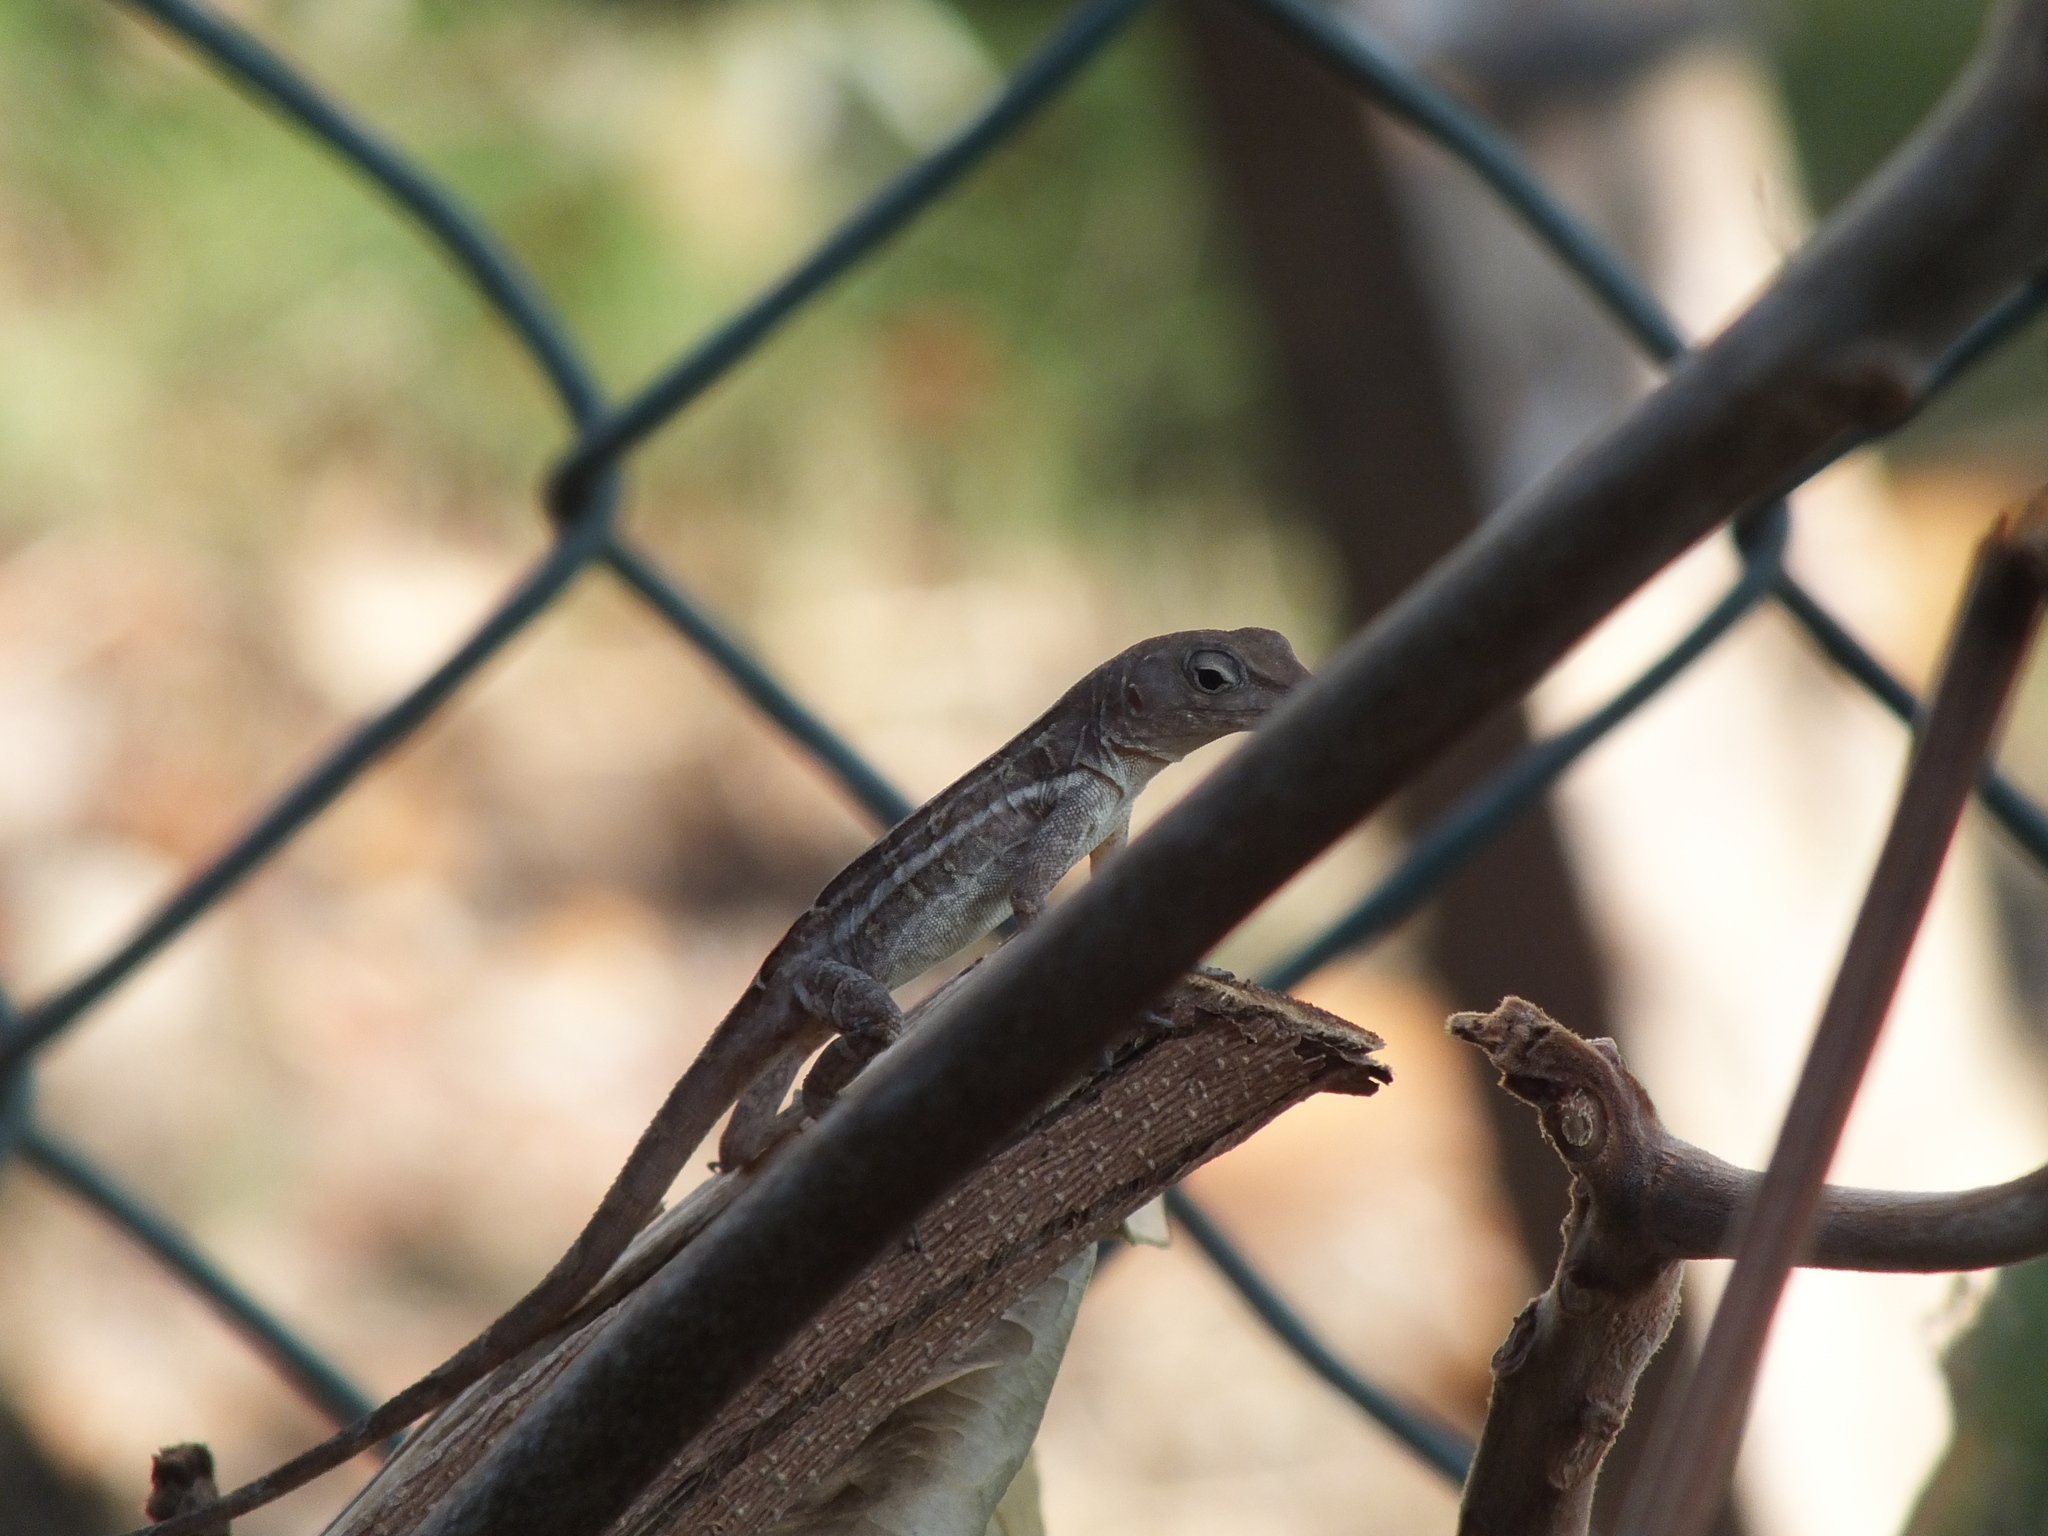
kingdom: Animalia
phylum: Chordata
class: Squamata
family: Dactyloidae
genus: Anolis
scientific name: Anolis lineatopus
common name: Stripefoot anole
